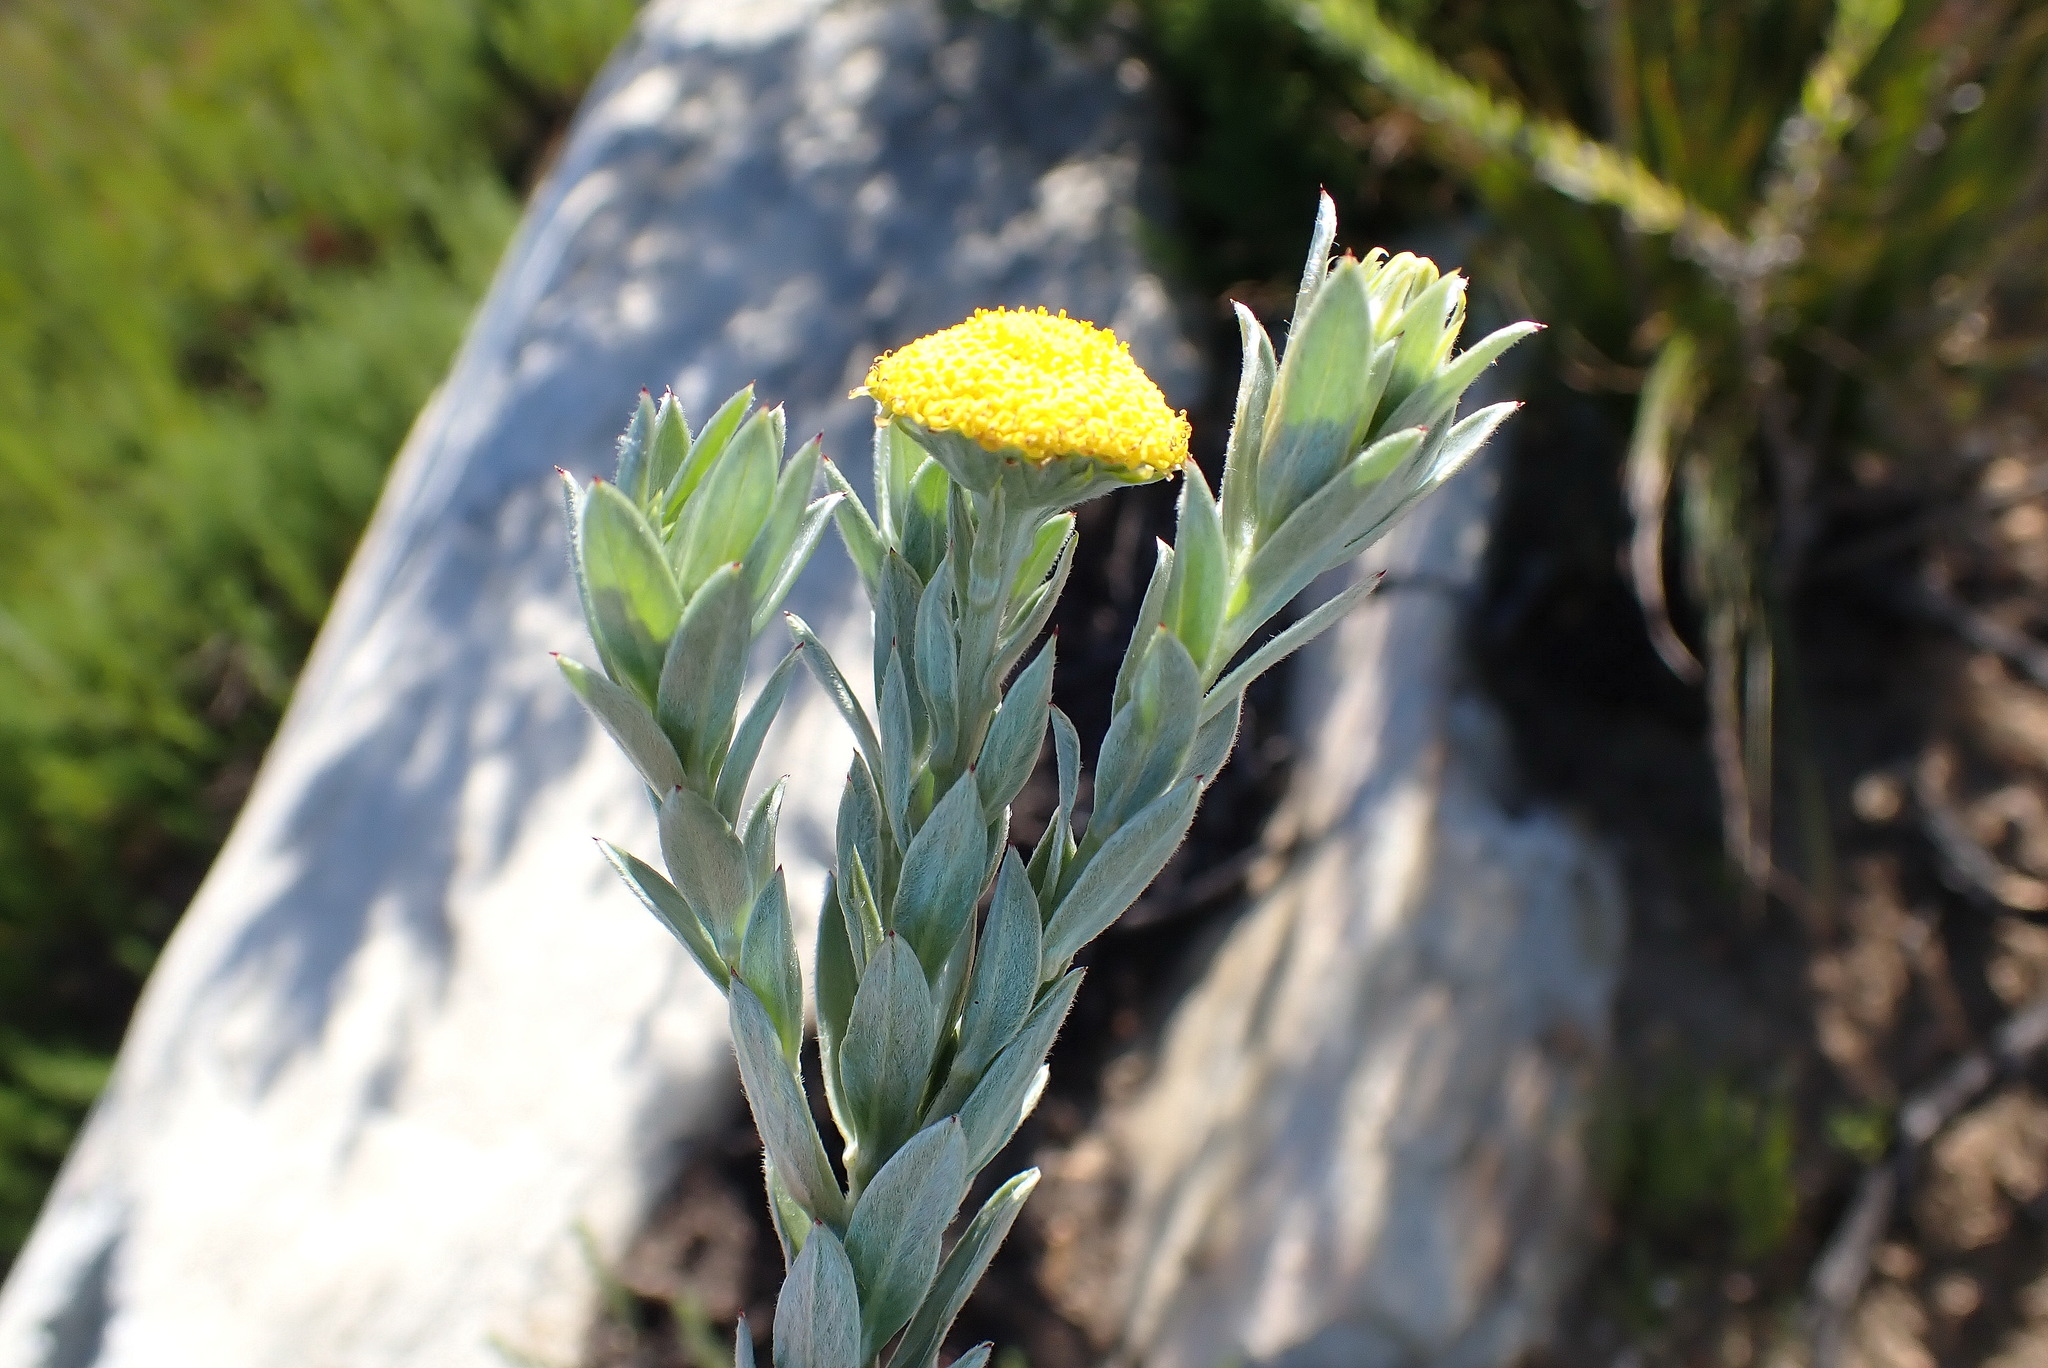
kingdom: Plantae
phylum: Tracheophyta
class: Magnoliopsida
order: Asterales
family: Asteraceae
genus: Schistostephium
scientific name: Schistostephium umbellatum
